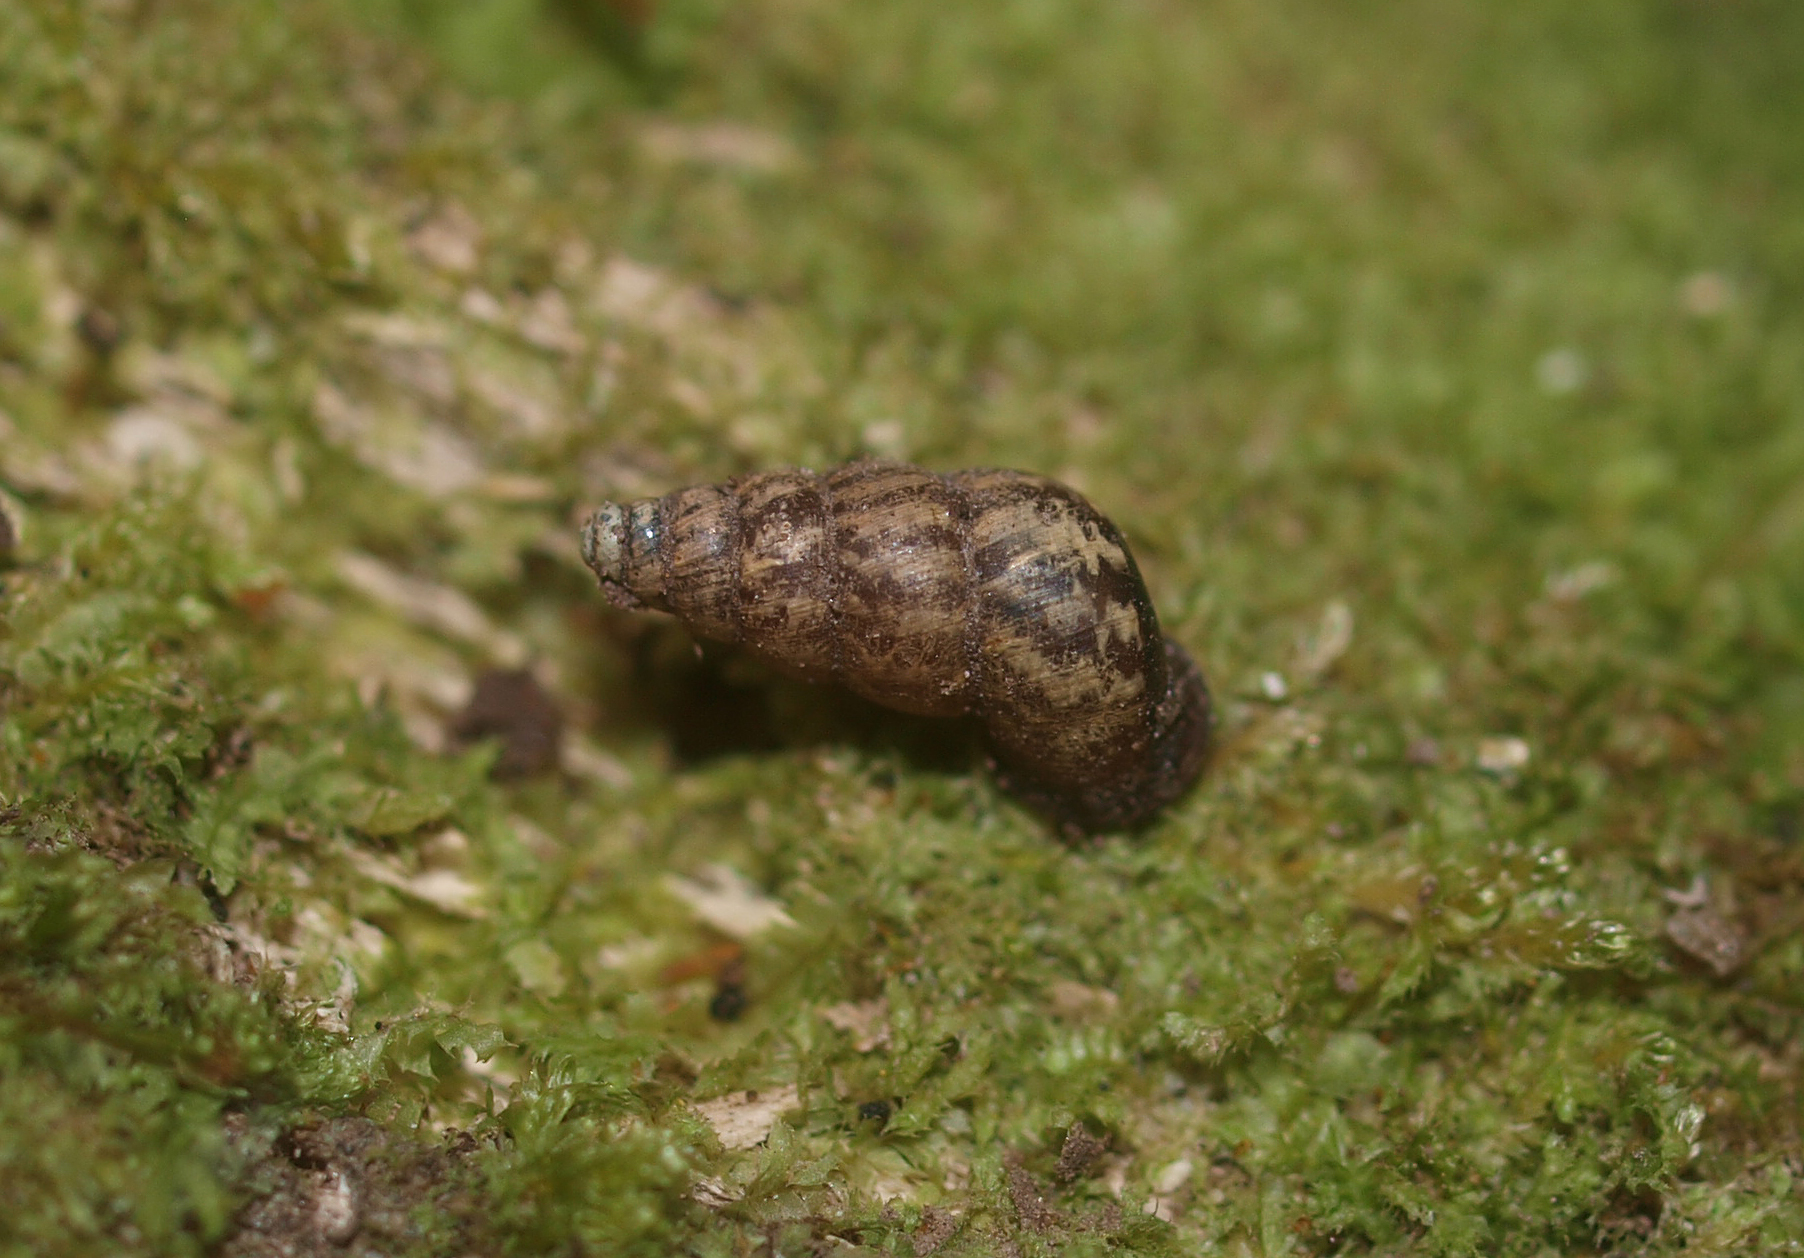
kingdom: Animalia
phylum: Mollusca
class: Gastropoda
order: Architaenioglossa
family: Pupinidae
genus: Liarea
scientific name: Liarea turriculata
